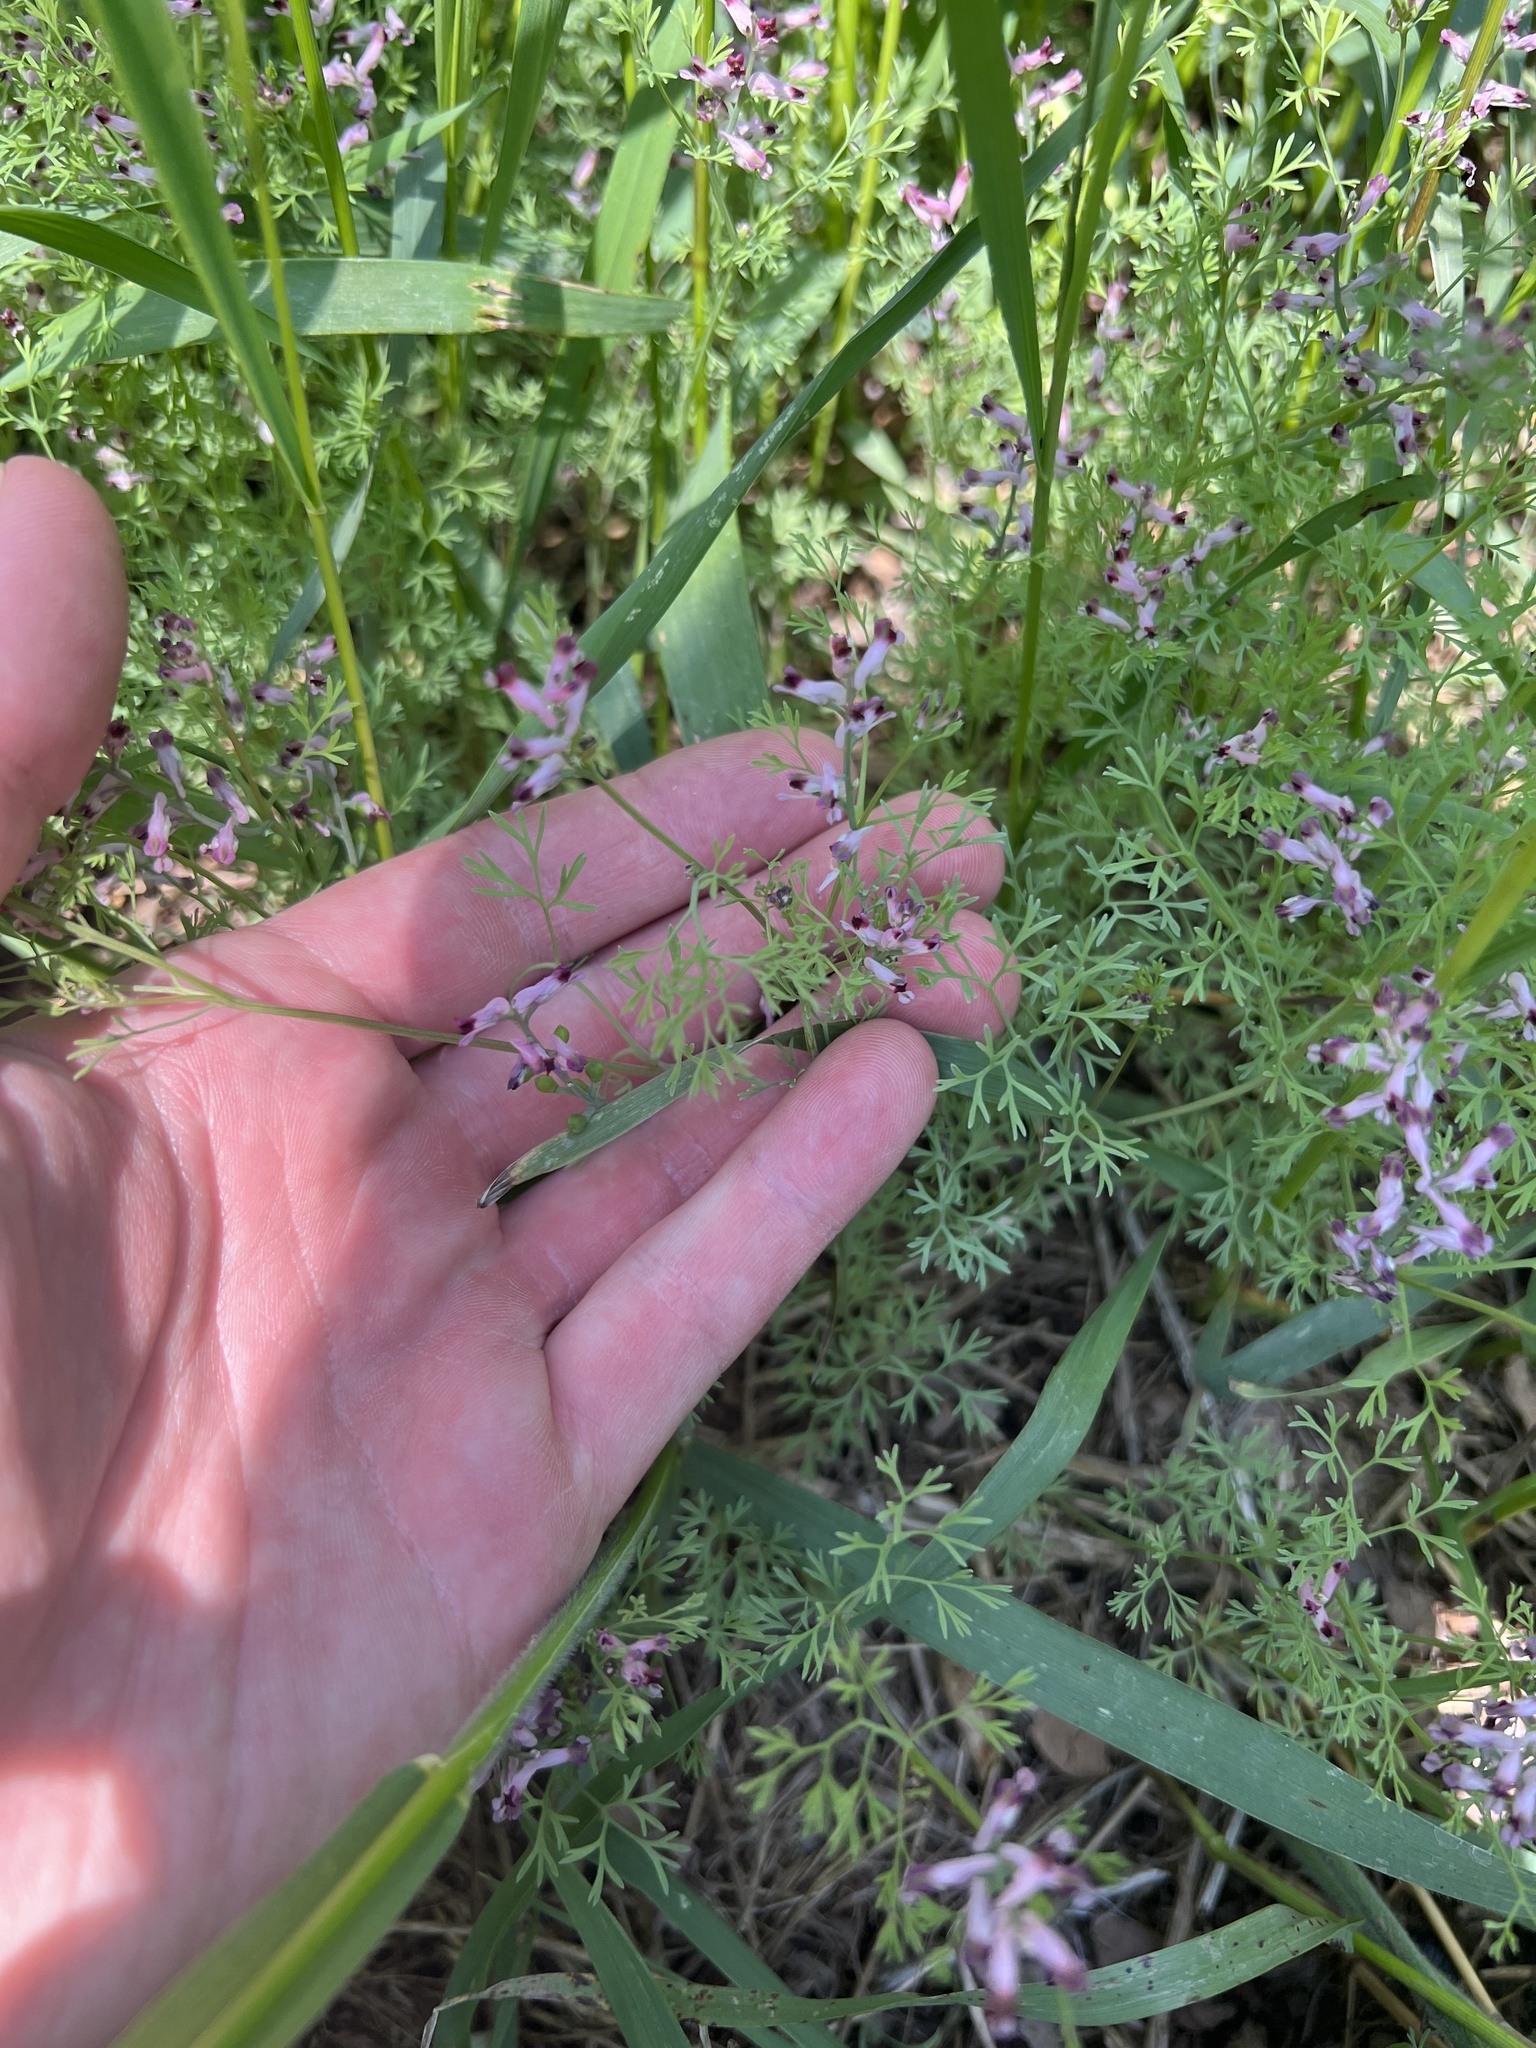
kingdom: Plantae
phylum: Tracheophyta
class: Magnoliopsida
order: Ranunculales
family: Papaveraceae
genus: Fumaria
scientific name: Fumaria vaillantii
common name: Few-flowered fumitory
